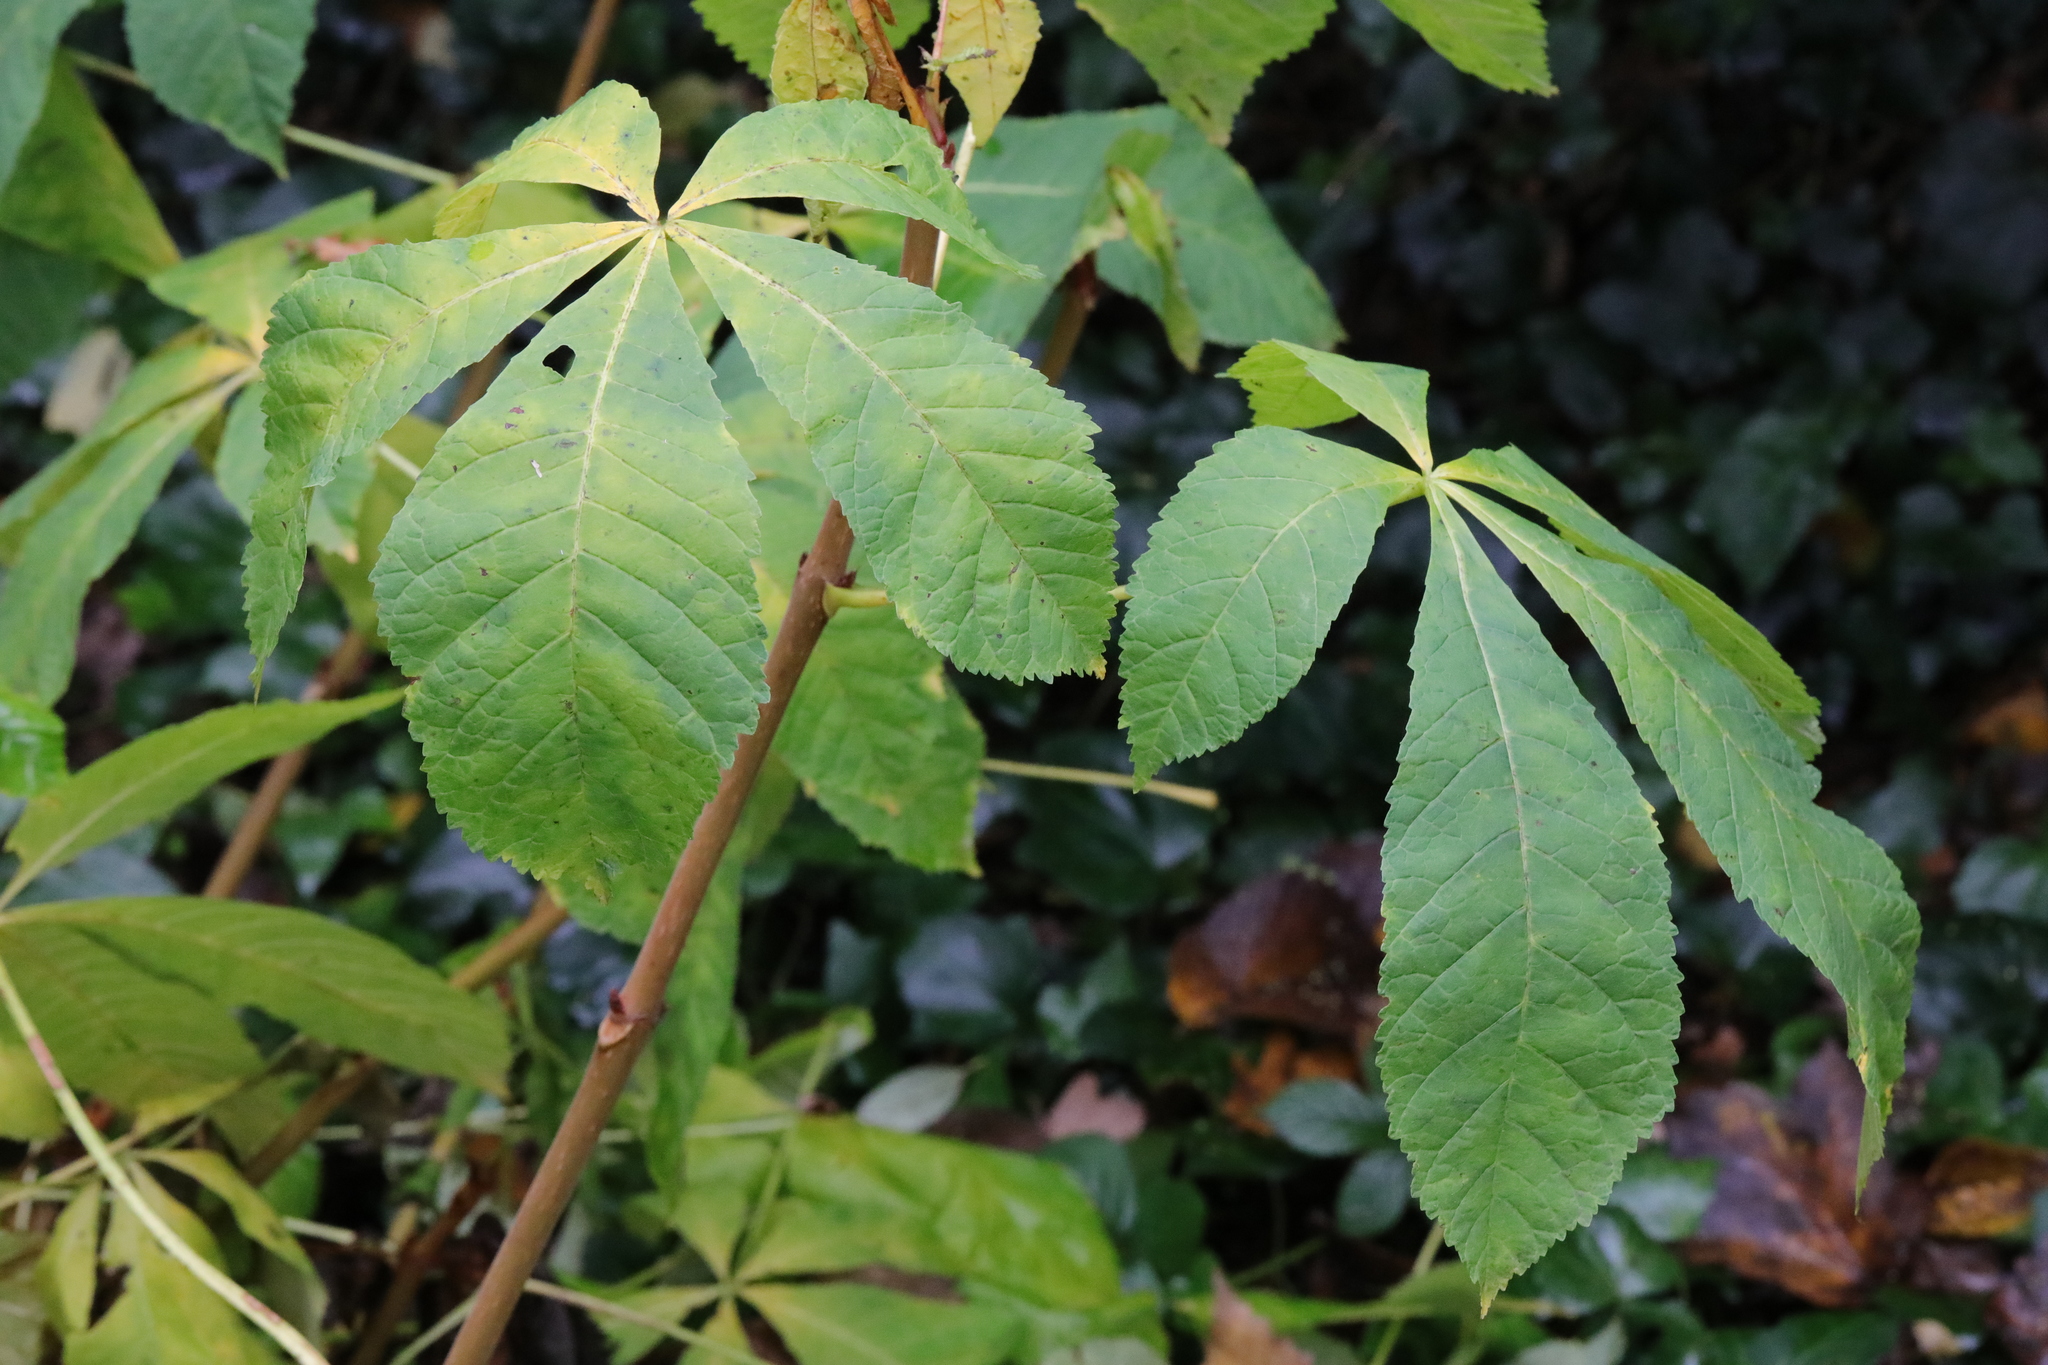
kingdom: Plantae
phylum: Tracheophyta
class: Magnoliopsida
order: Sapindales
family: Sapindaceae
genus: Aesculus
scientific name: Aesculus hippocastanum
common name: Horse-chestnut
